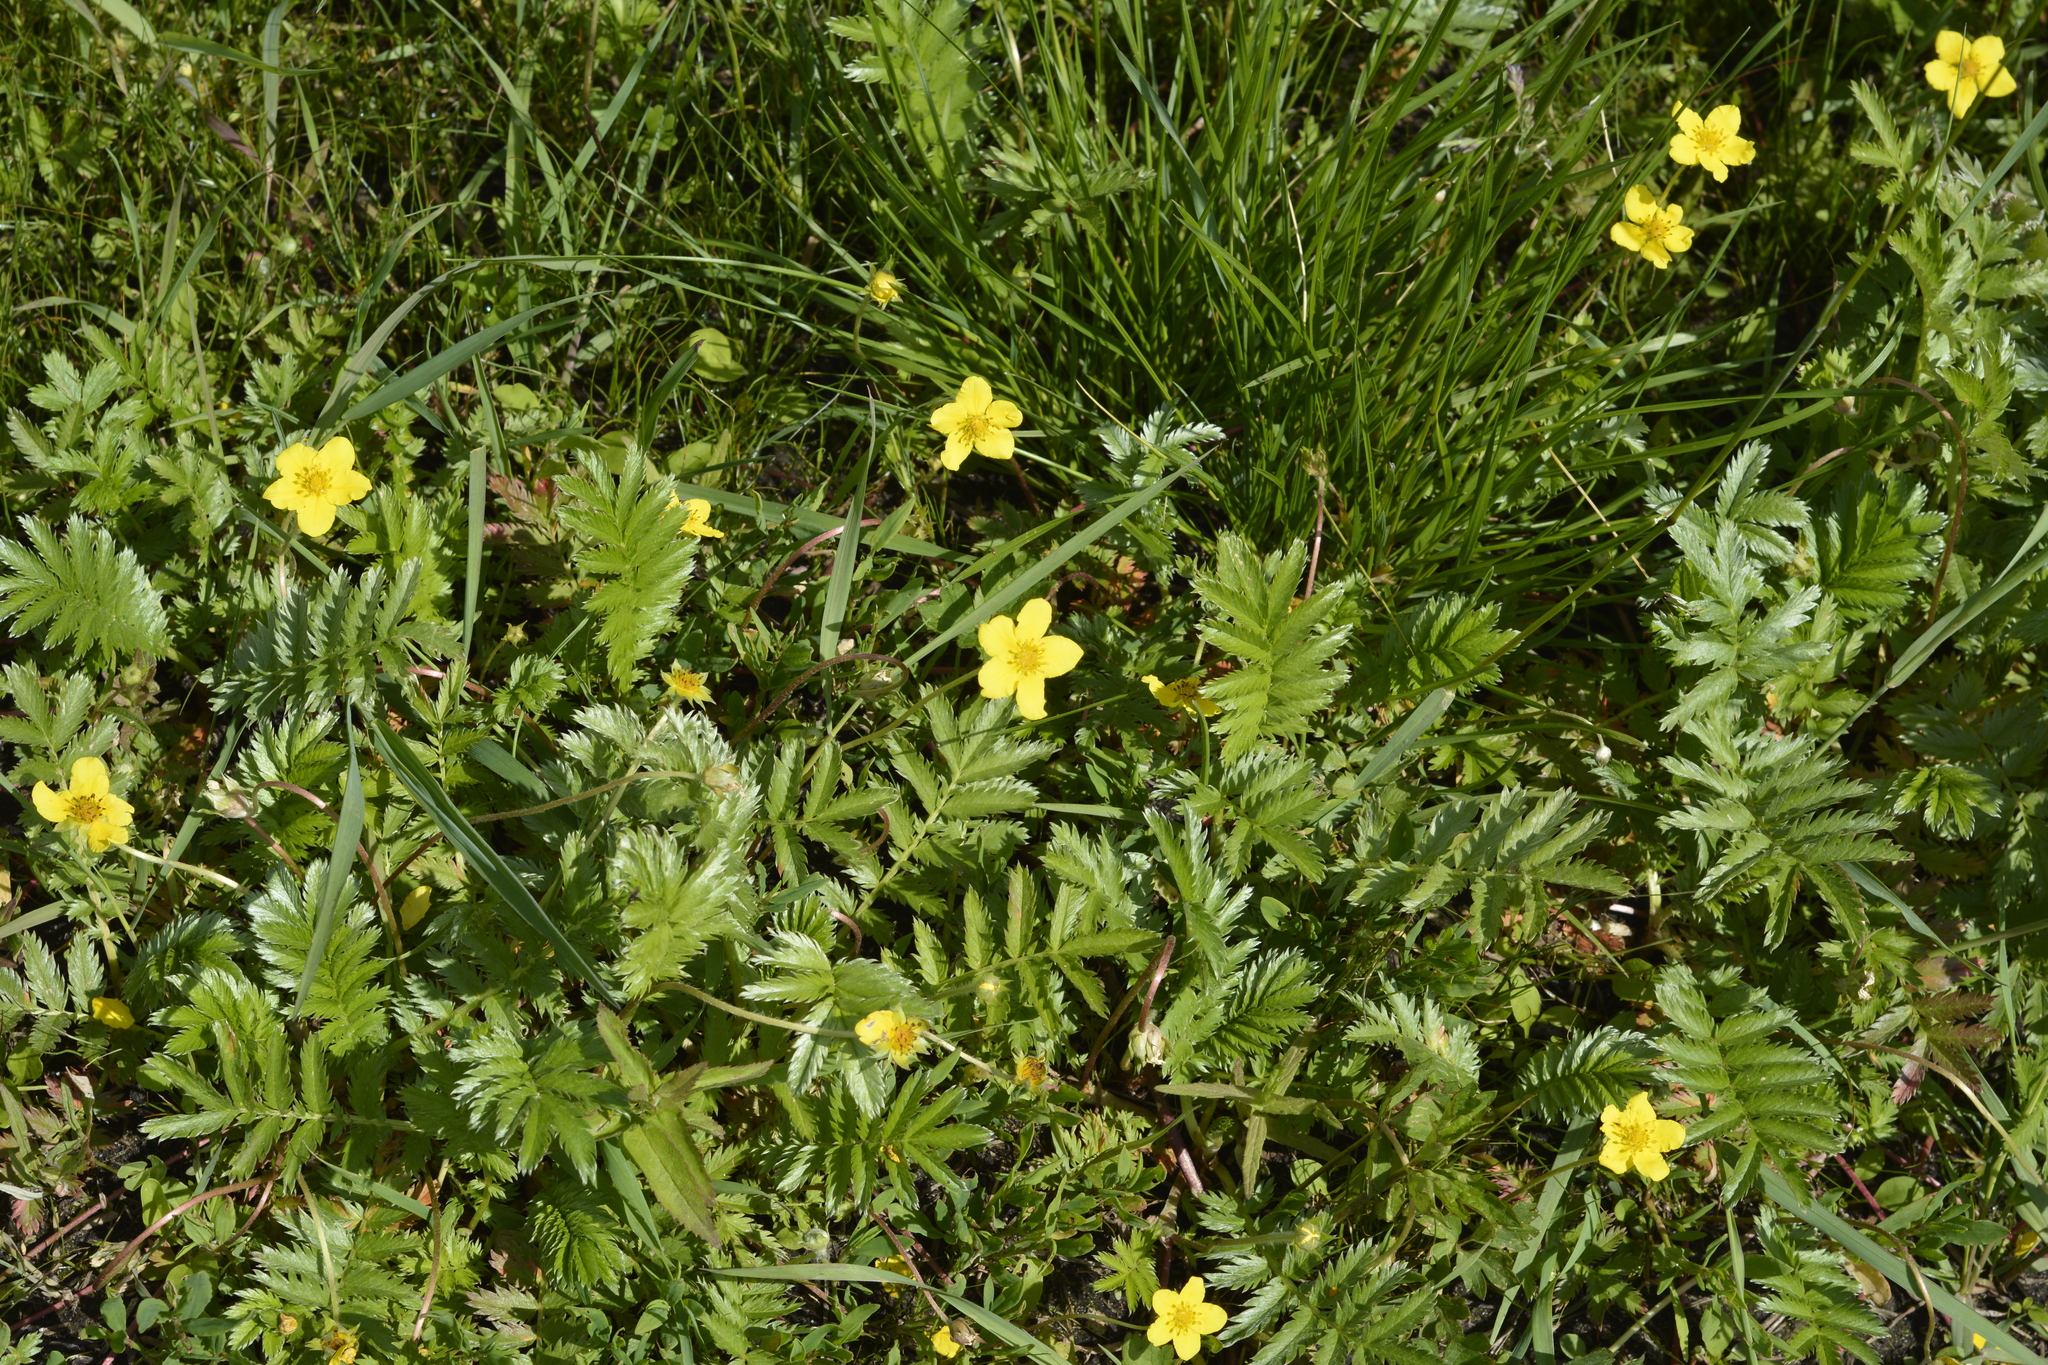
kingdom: Plantae
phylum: Tracheophyta
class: Magnoliopsida
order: Rosales
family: Rosaceae
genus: Argentina
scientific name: Argentina anserina
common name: Common silverweed
